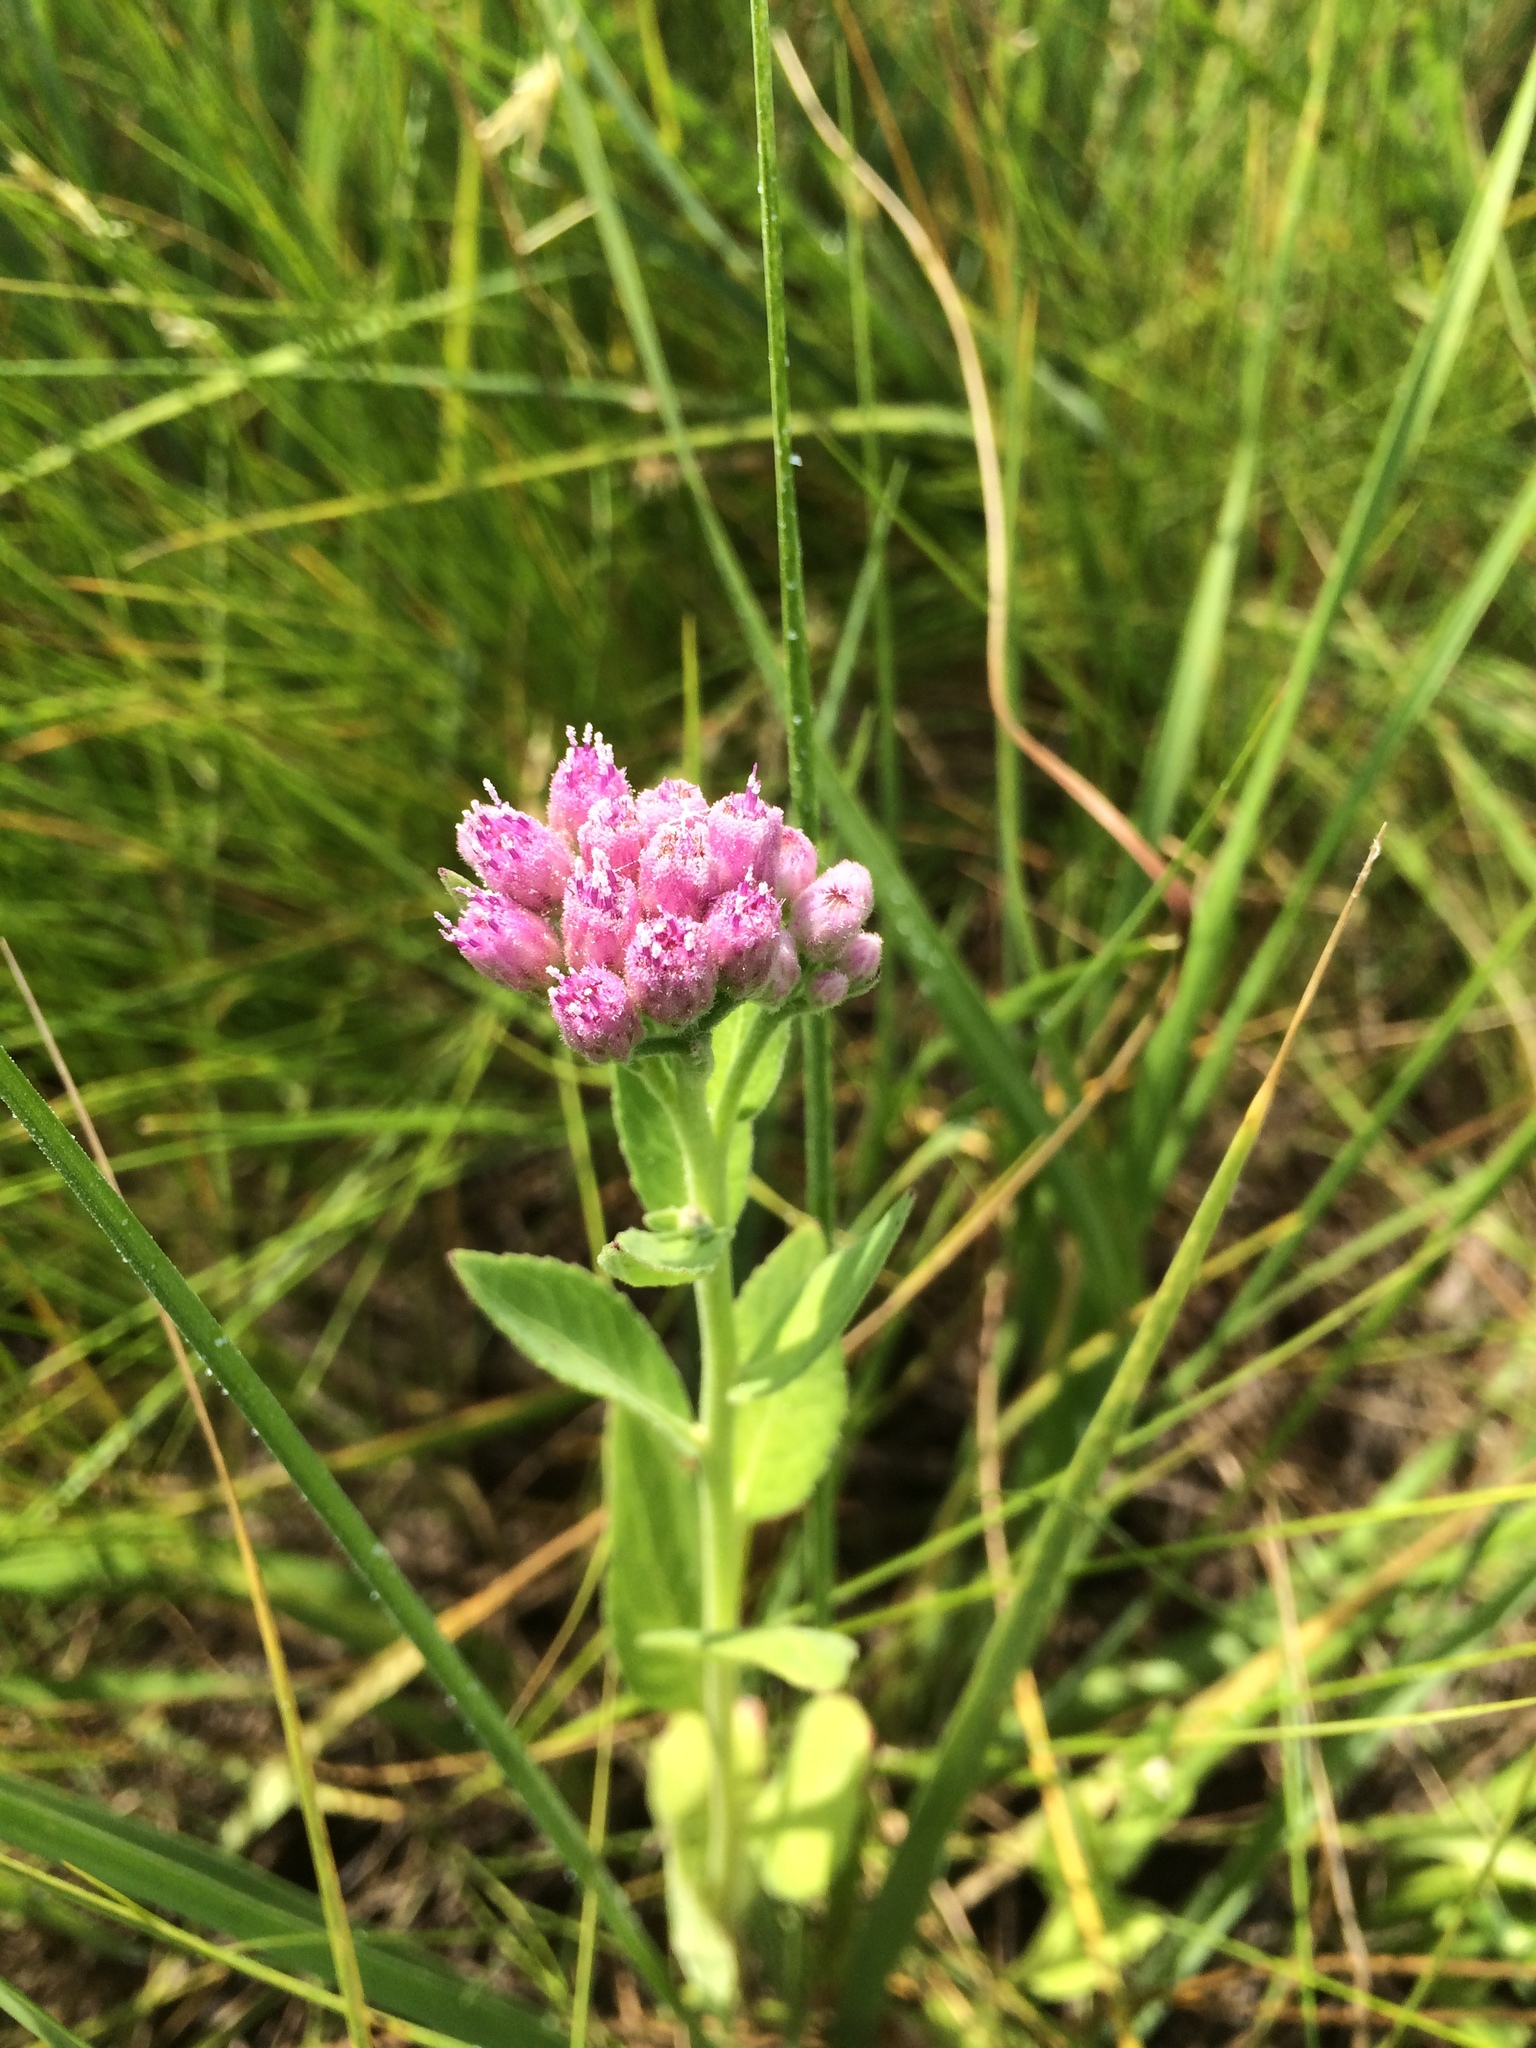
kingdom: Plantae
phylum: Tracheophyta
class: Magnoliopsida
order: Asterales
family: Asteraceae
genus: Pluchea
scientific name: Pluchea odorata
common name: Saltmarsh fleabane
